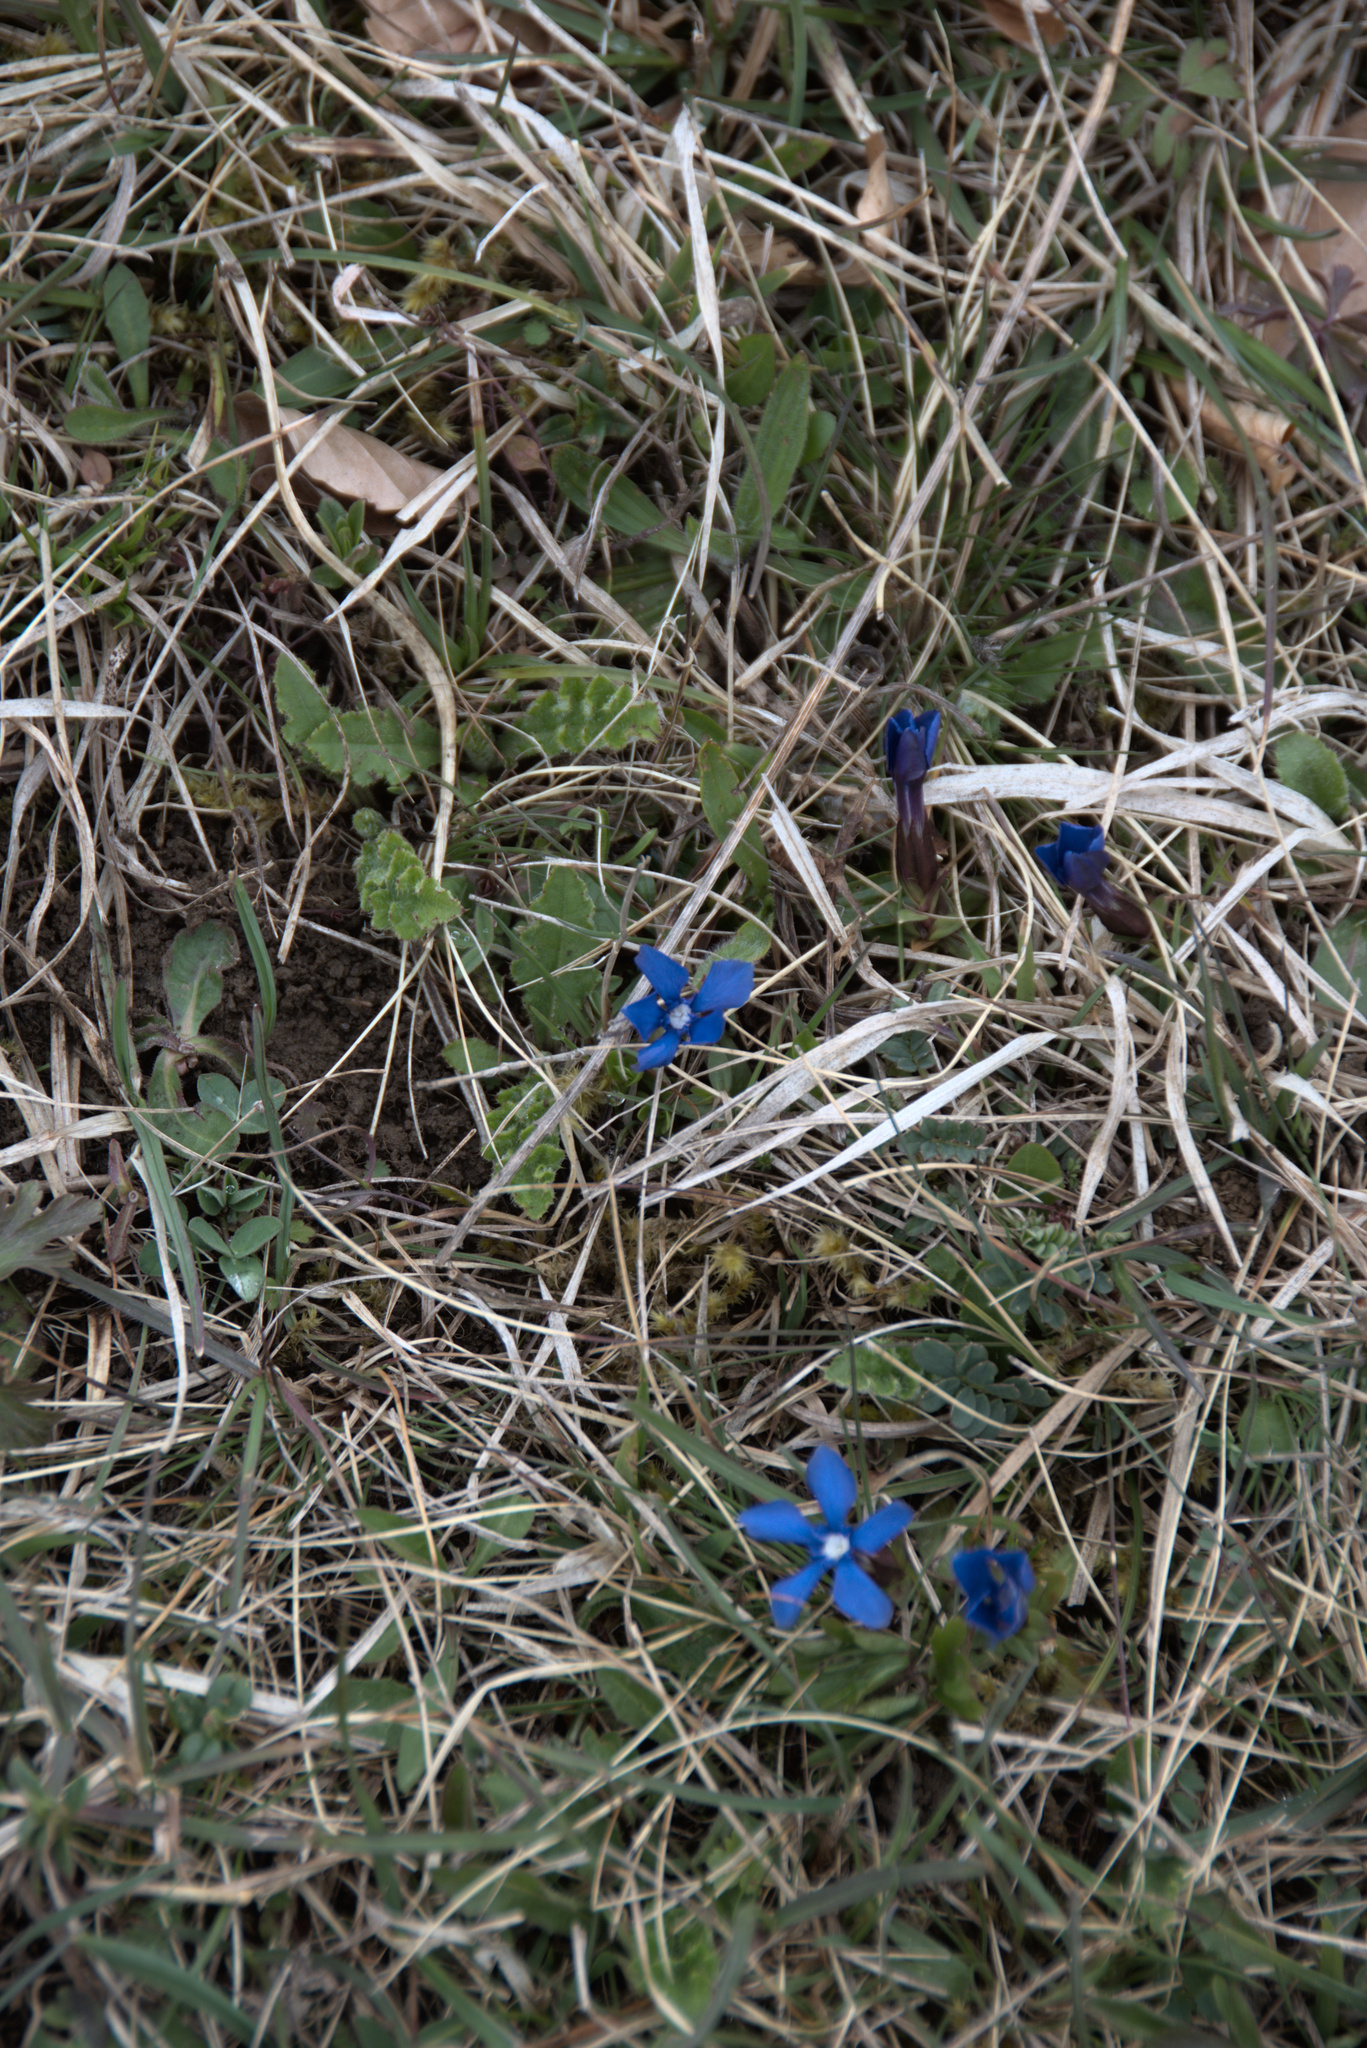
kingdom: Plantae
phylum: Tracheophyta
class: Magnoliopsida
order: Gentianales
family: Gentianaceae
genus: Gentiana
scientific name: Gentiana verna
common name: Spring gentian
